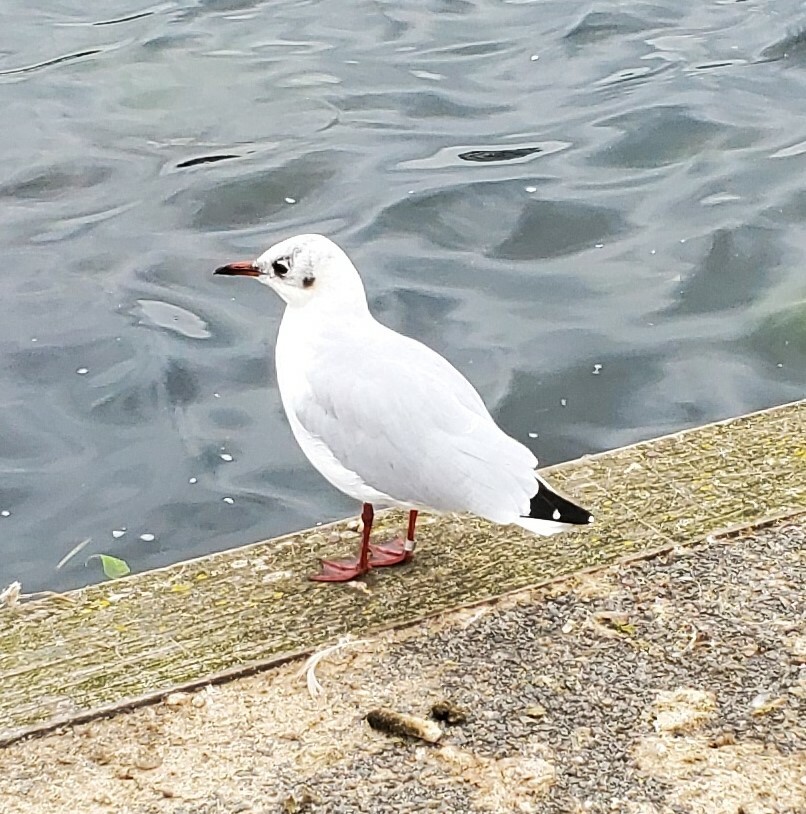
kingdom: Animalia
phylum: Chordata
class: Aves
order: Charadriiformes
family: Laridae
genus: Chroicocephalus
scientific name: Chroicocephalus ridibundus
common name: Black-headed gull
